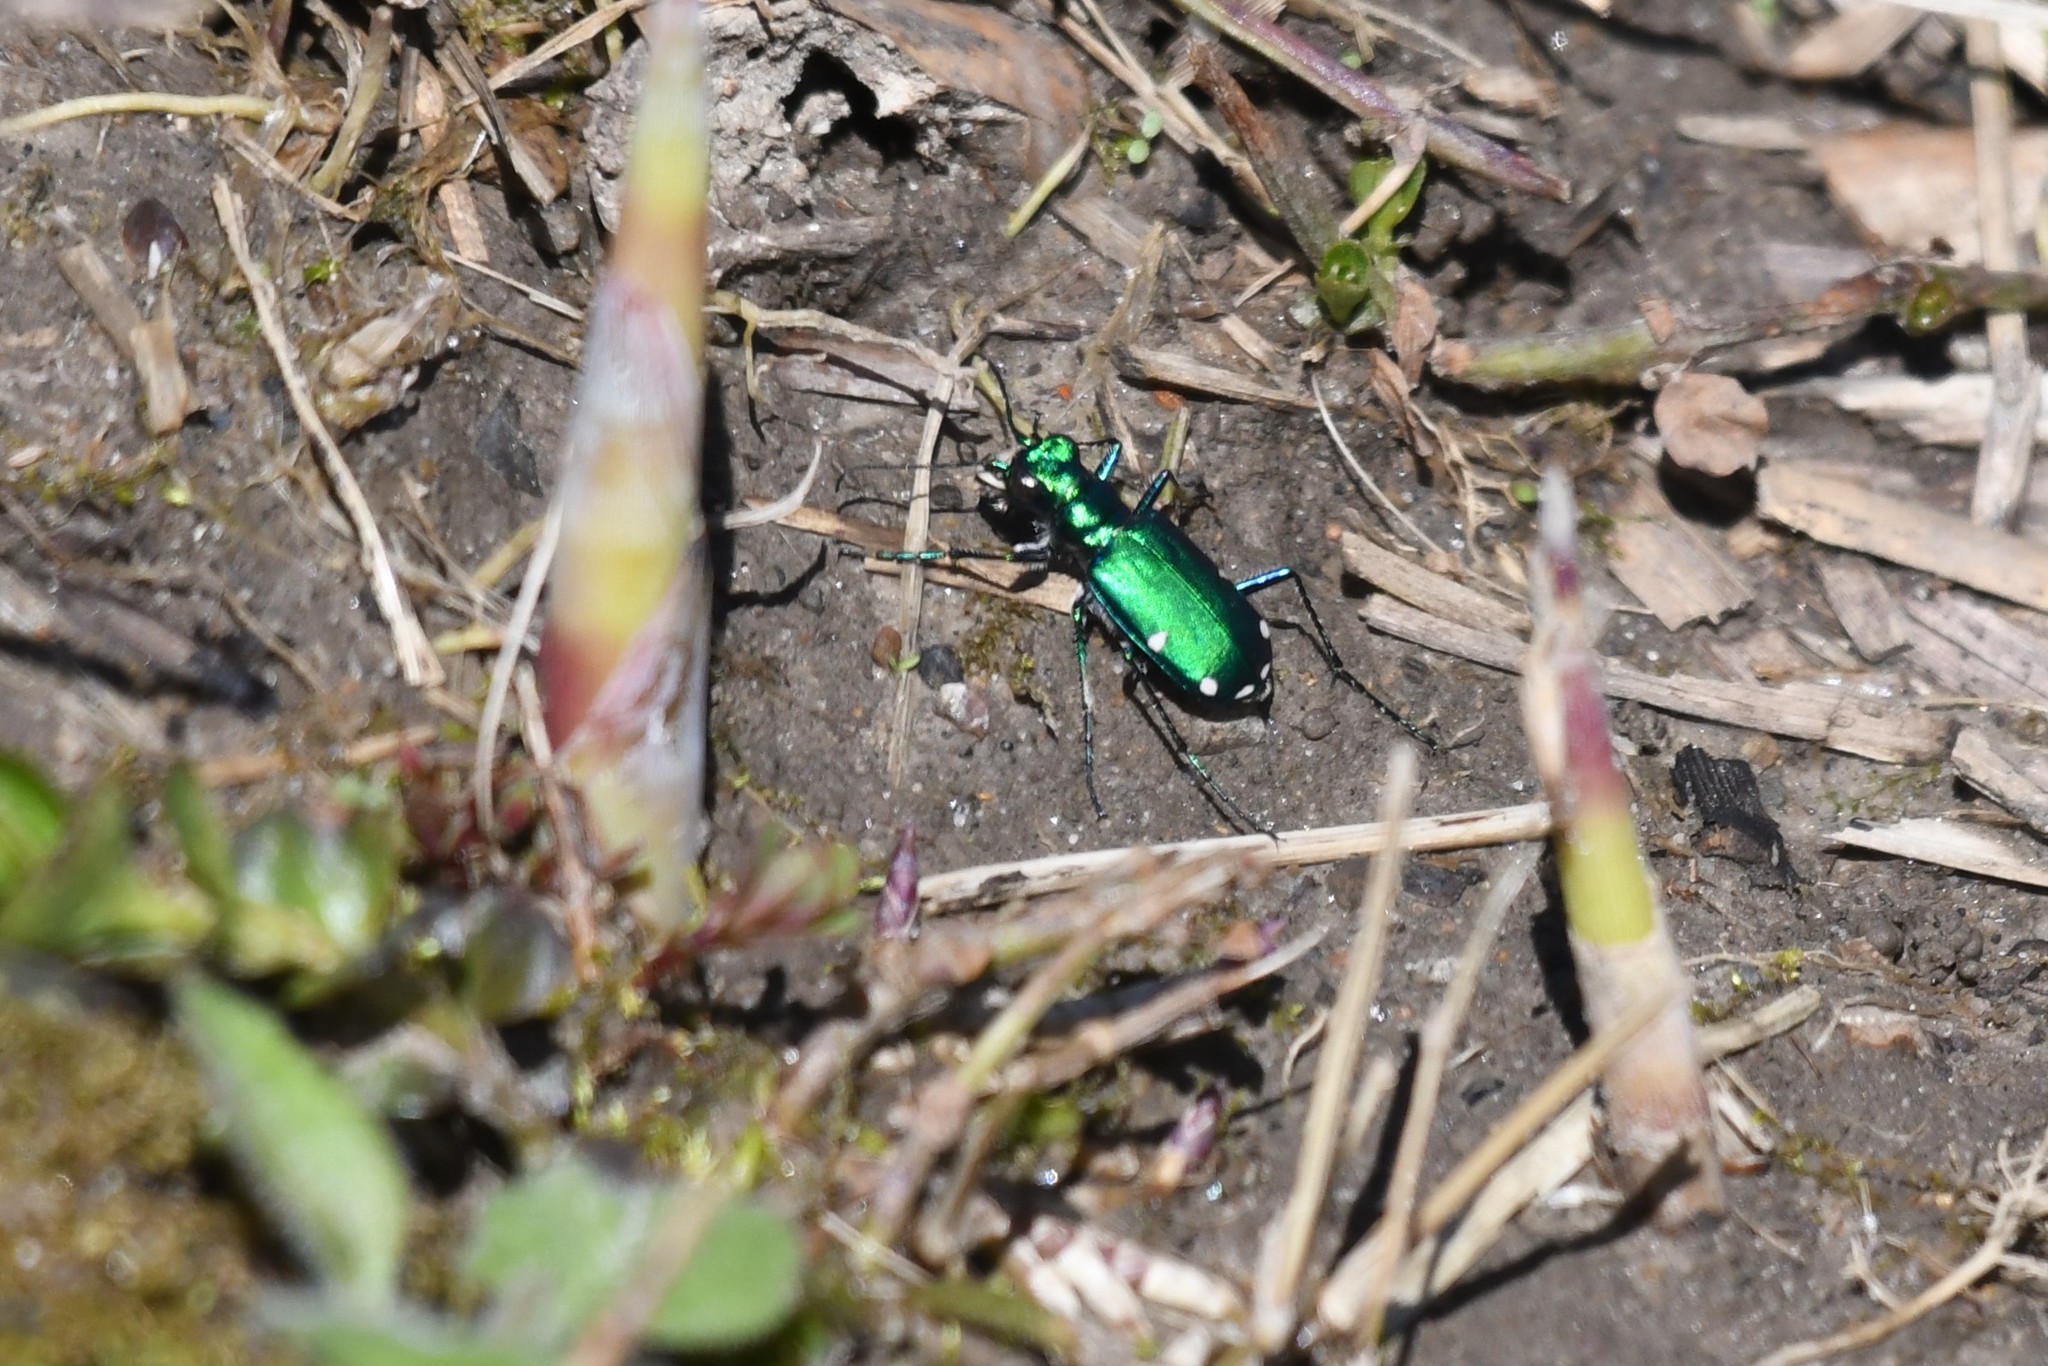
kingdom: Animalia
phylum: Arthropoda
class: Insecta
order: Coleoptera
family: Carabidae
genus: Cicindela
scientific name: Cicindela sexguttata
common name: Six-spotted tiger beetle
